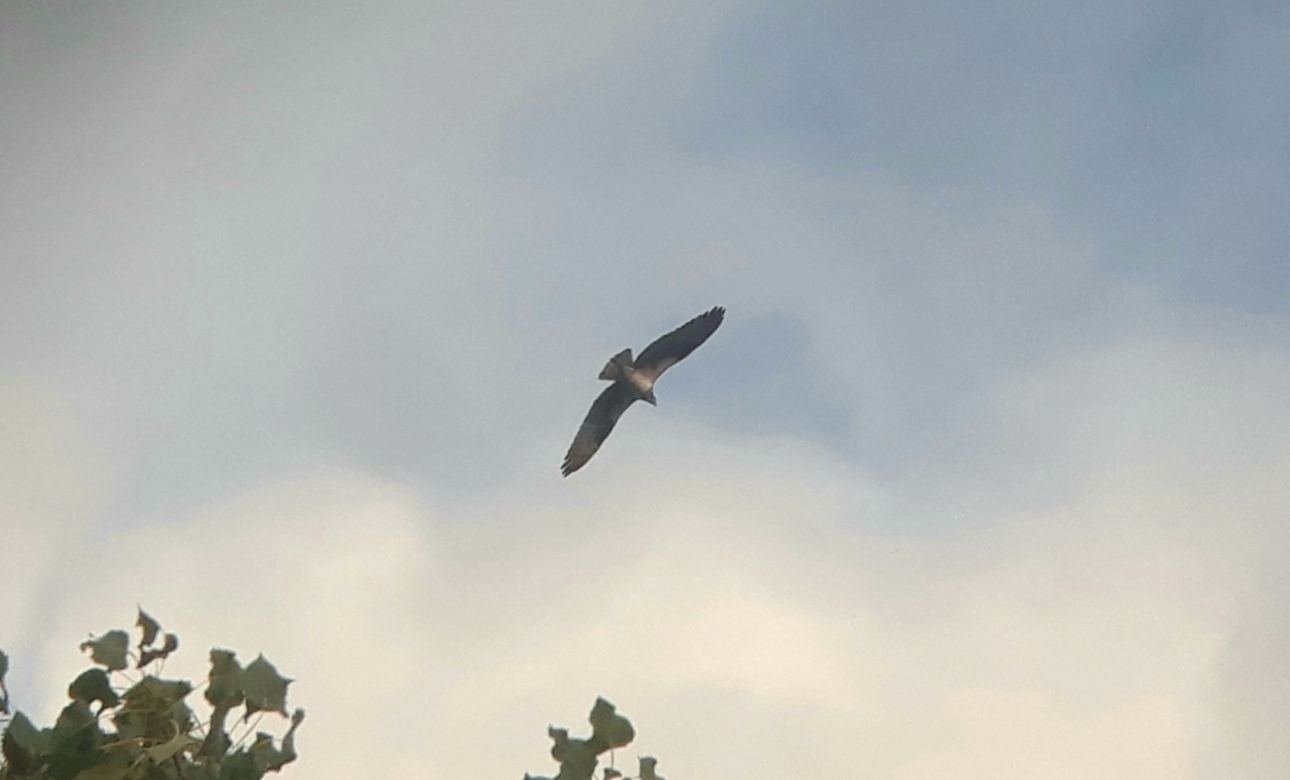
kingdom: Animalia
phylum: Chordata
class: Aves
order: Accipitriformes
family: Pandionidae
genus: Pandion
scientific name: Pandion haliaetus
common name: Osprey
